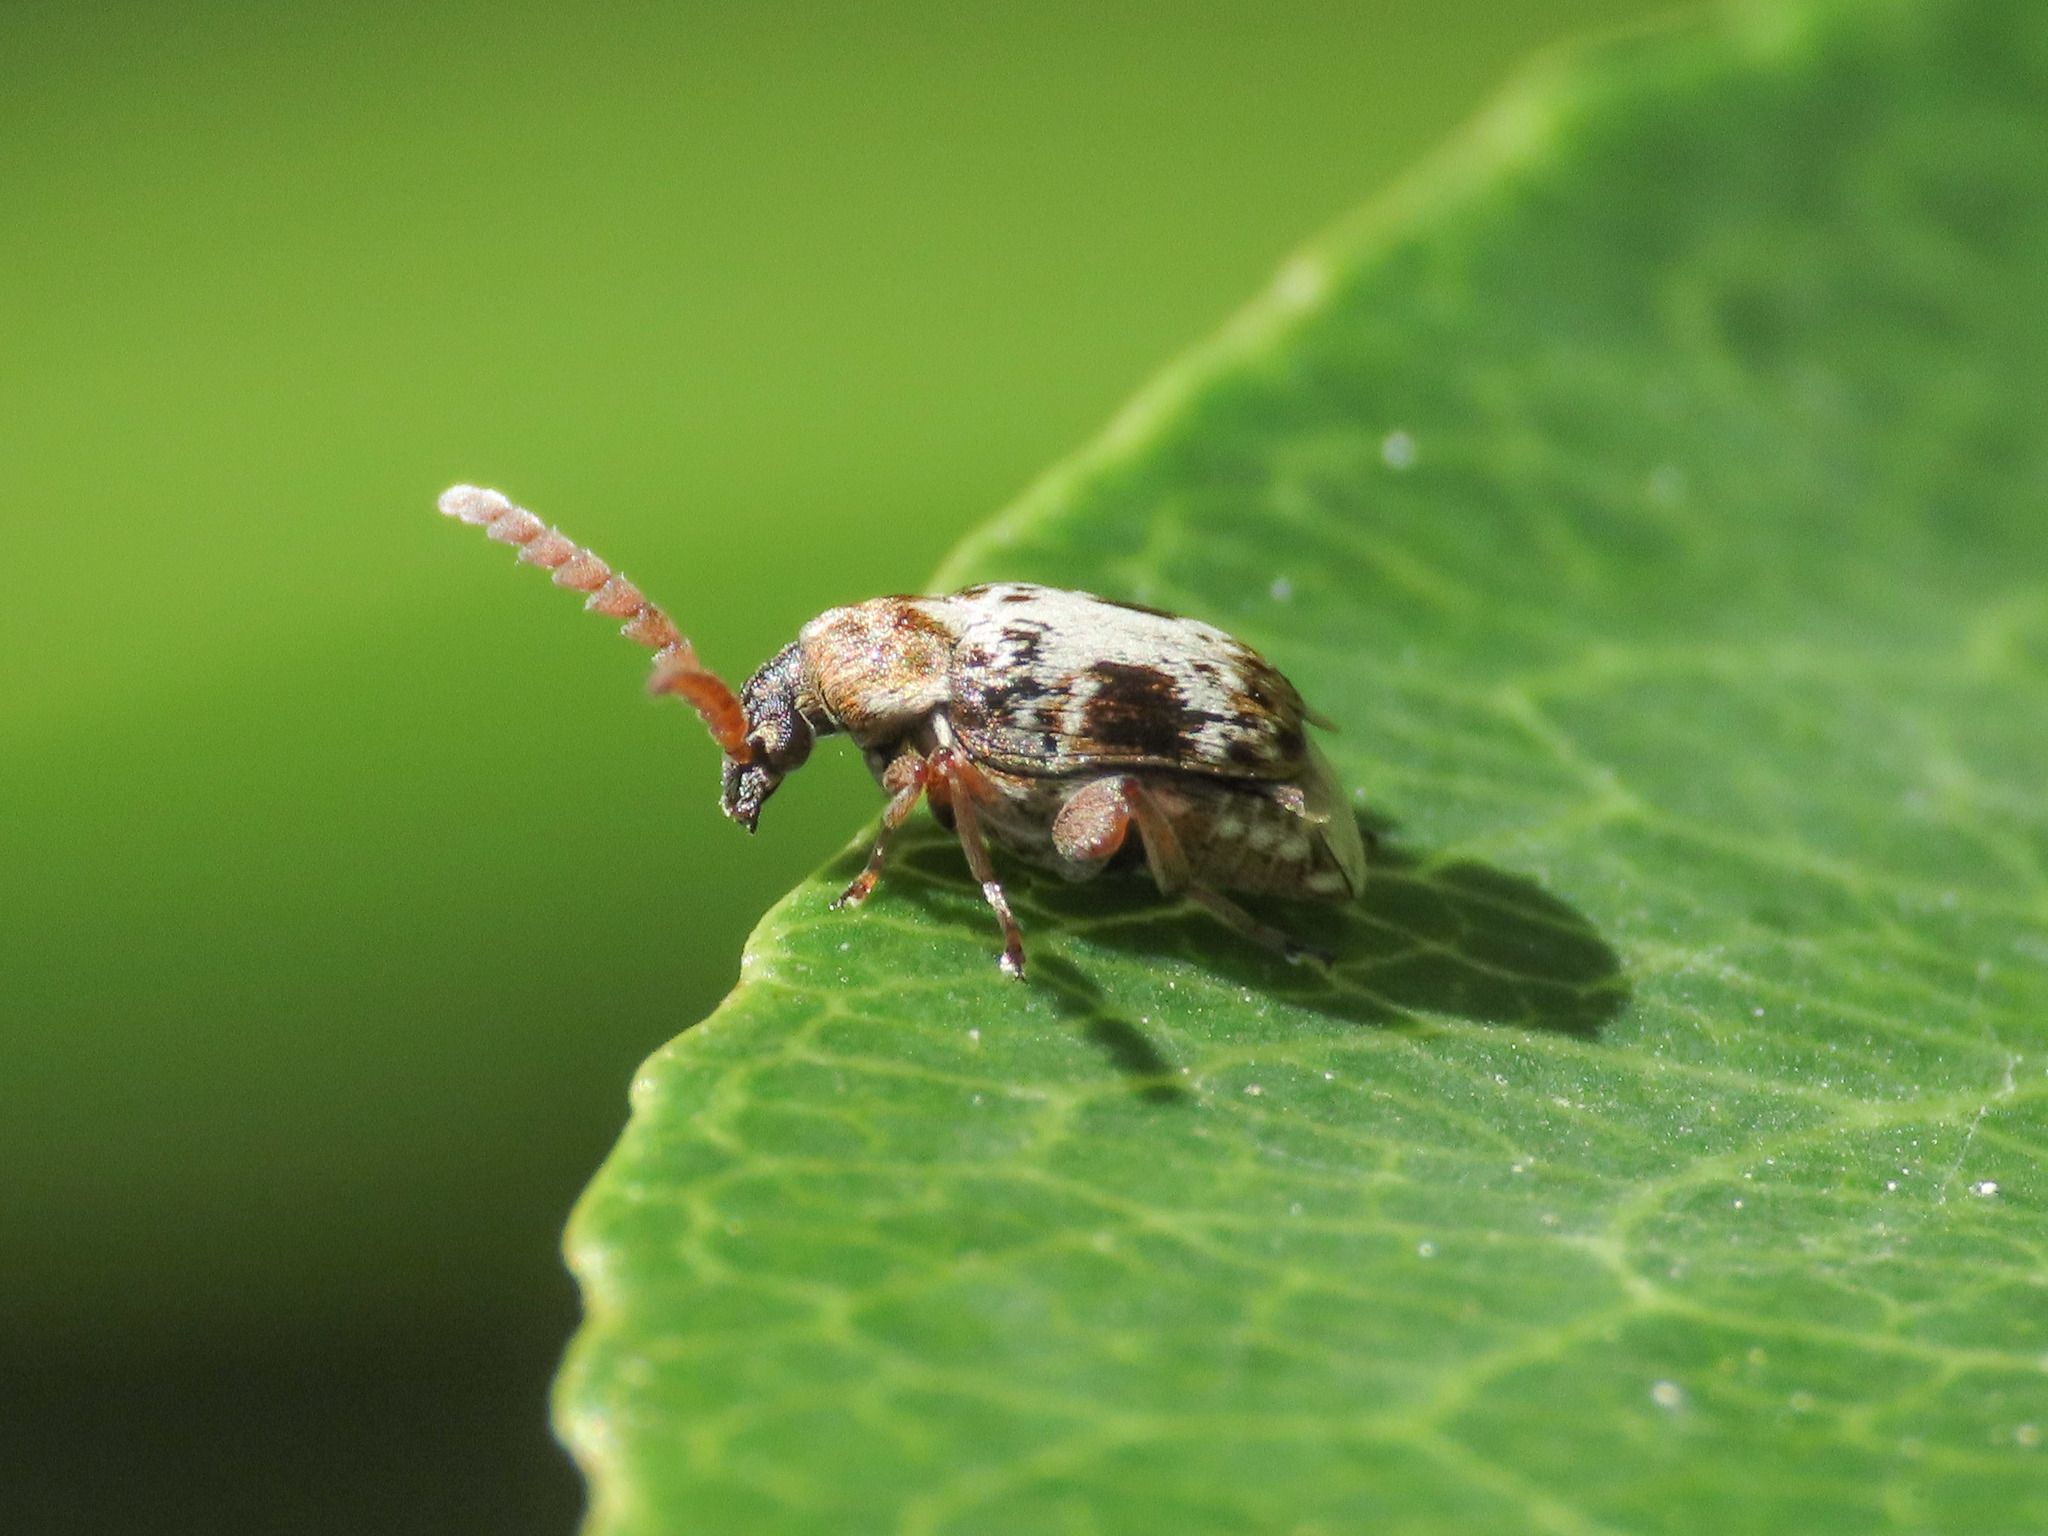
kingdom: Animalia
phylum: Arthropoda
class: Insecta
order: Coleoptera
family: Chrysomelidae
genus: Bruchidius
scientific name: Bruchidius poecilus
